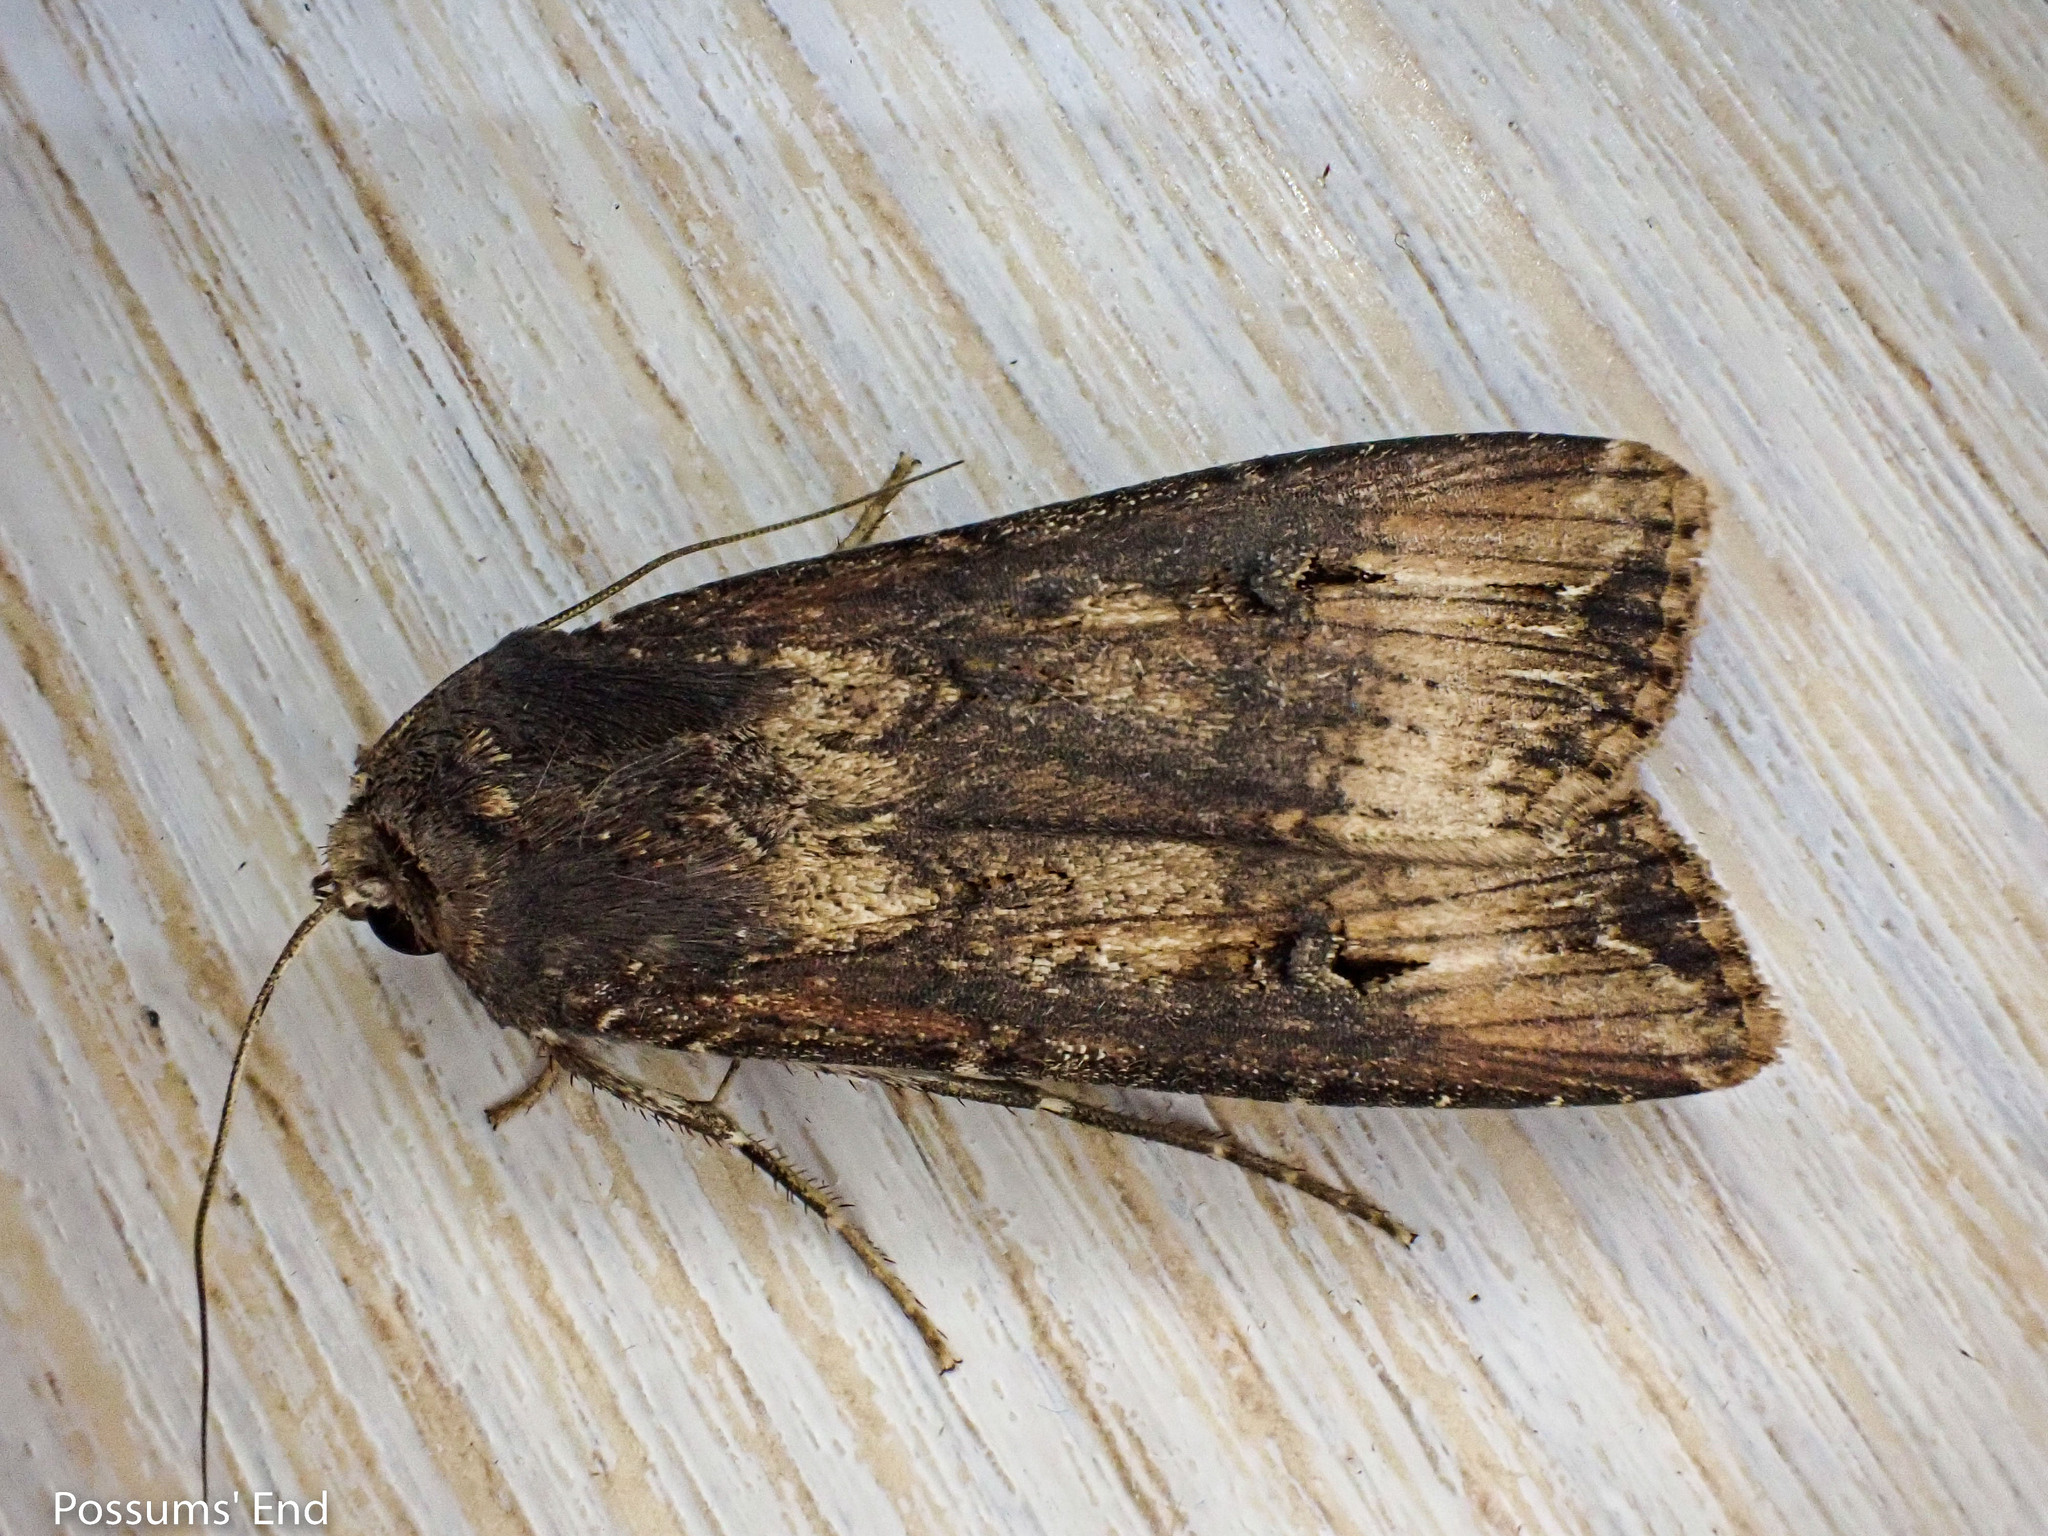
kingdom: Animalia
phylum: Arthropoda
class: Insecta
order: Lepidoptera
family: Noctuidae
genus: Agrotis
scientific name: Agrotis ipsilon
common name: Dark sword-grass
